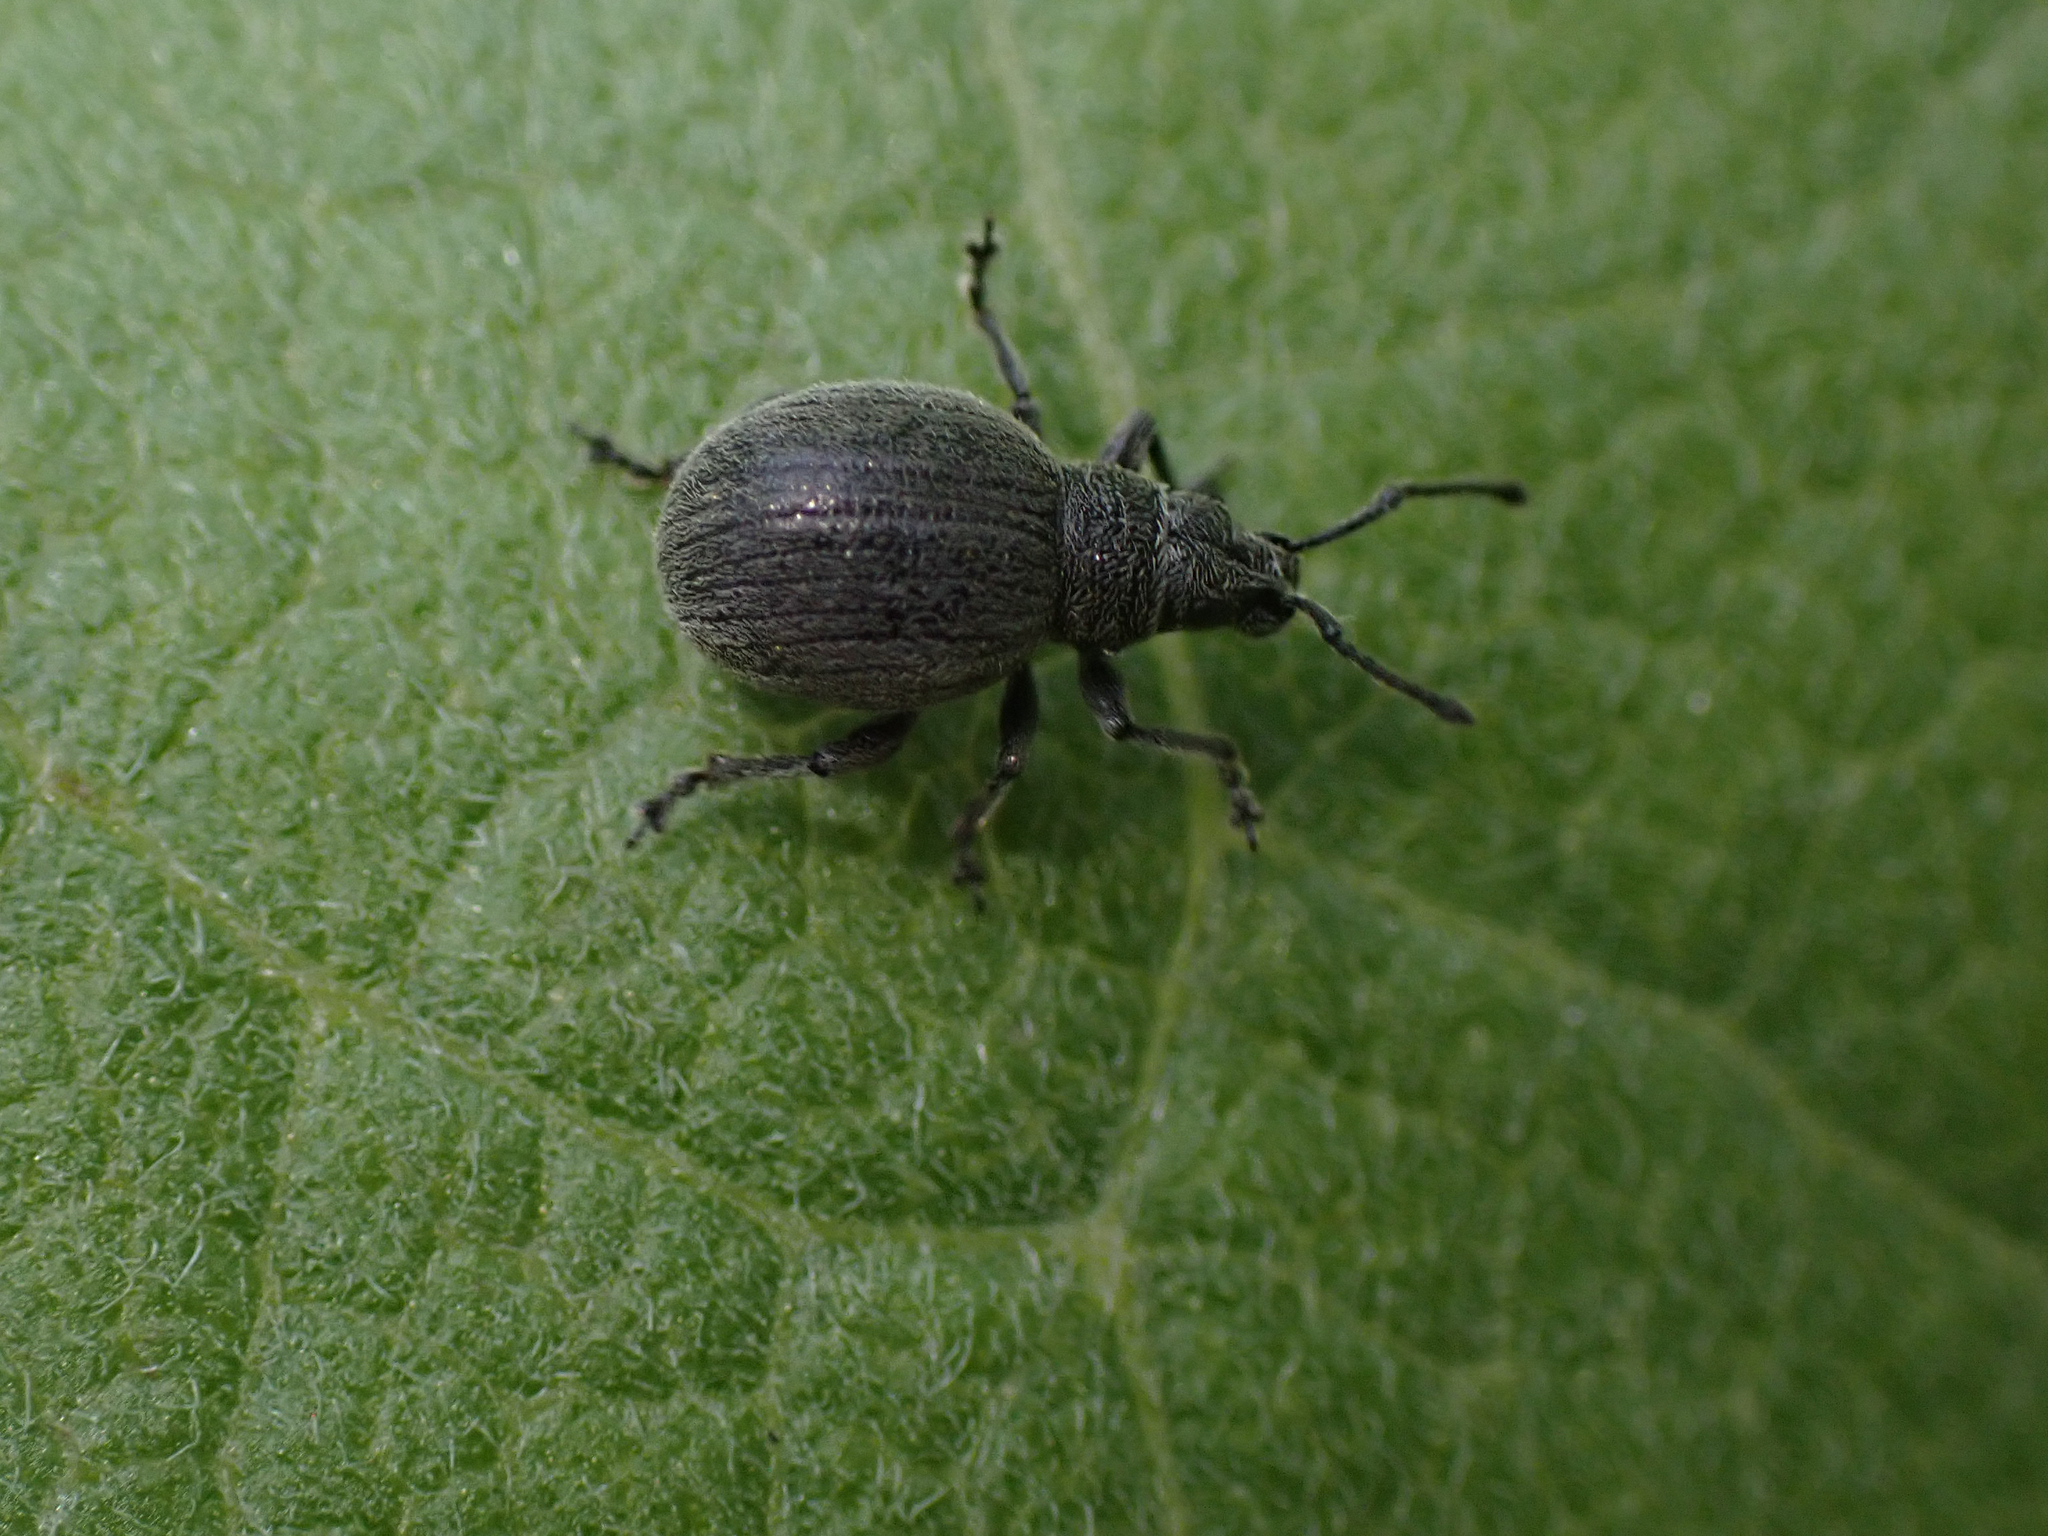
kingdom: Animalia
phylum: Arthropoda
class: Insecta
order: Coleoptera
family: Curculionidae
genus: Omias
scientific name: Omias saccatus
